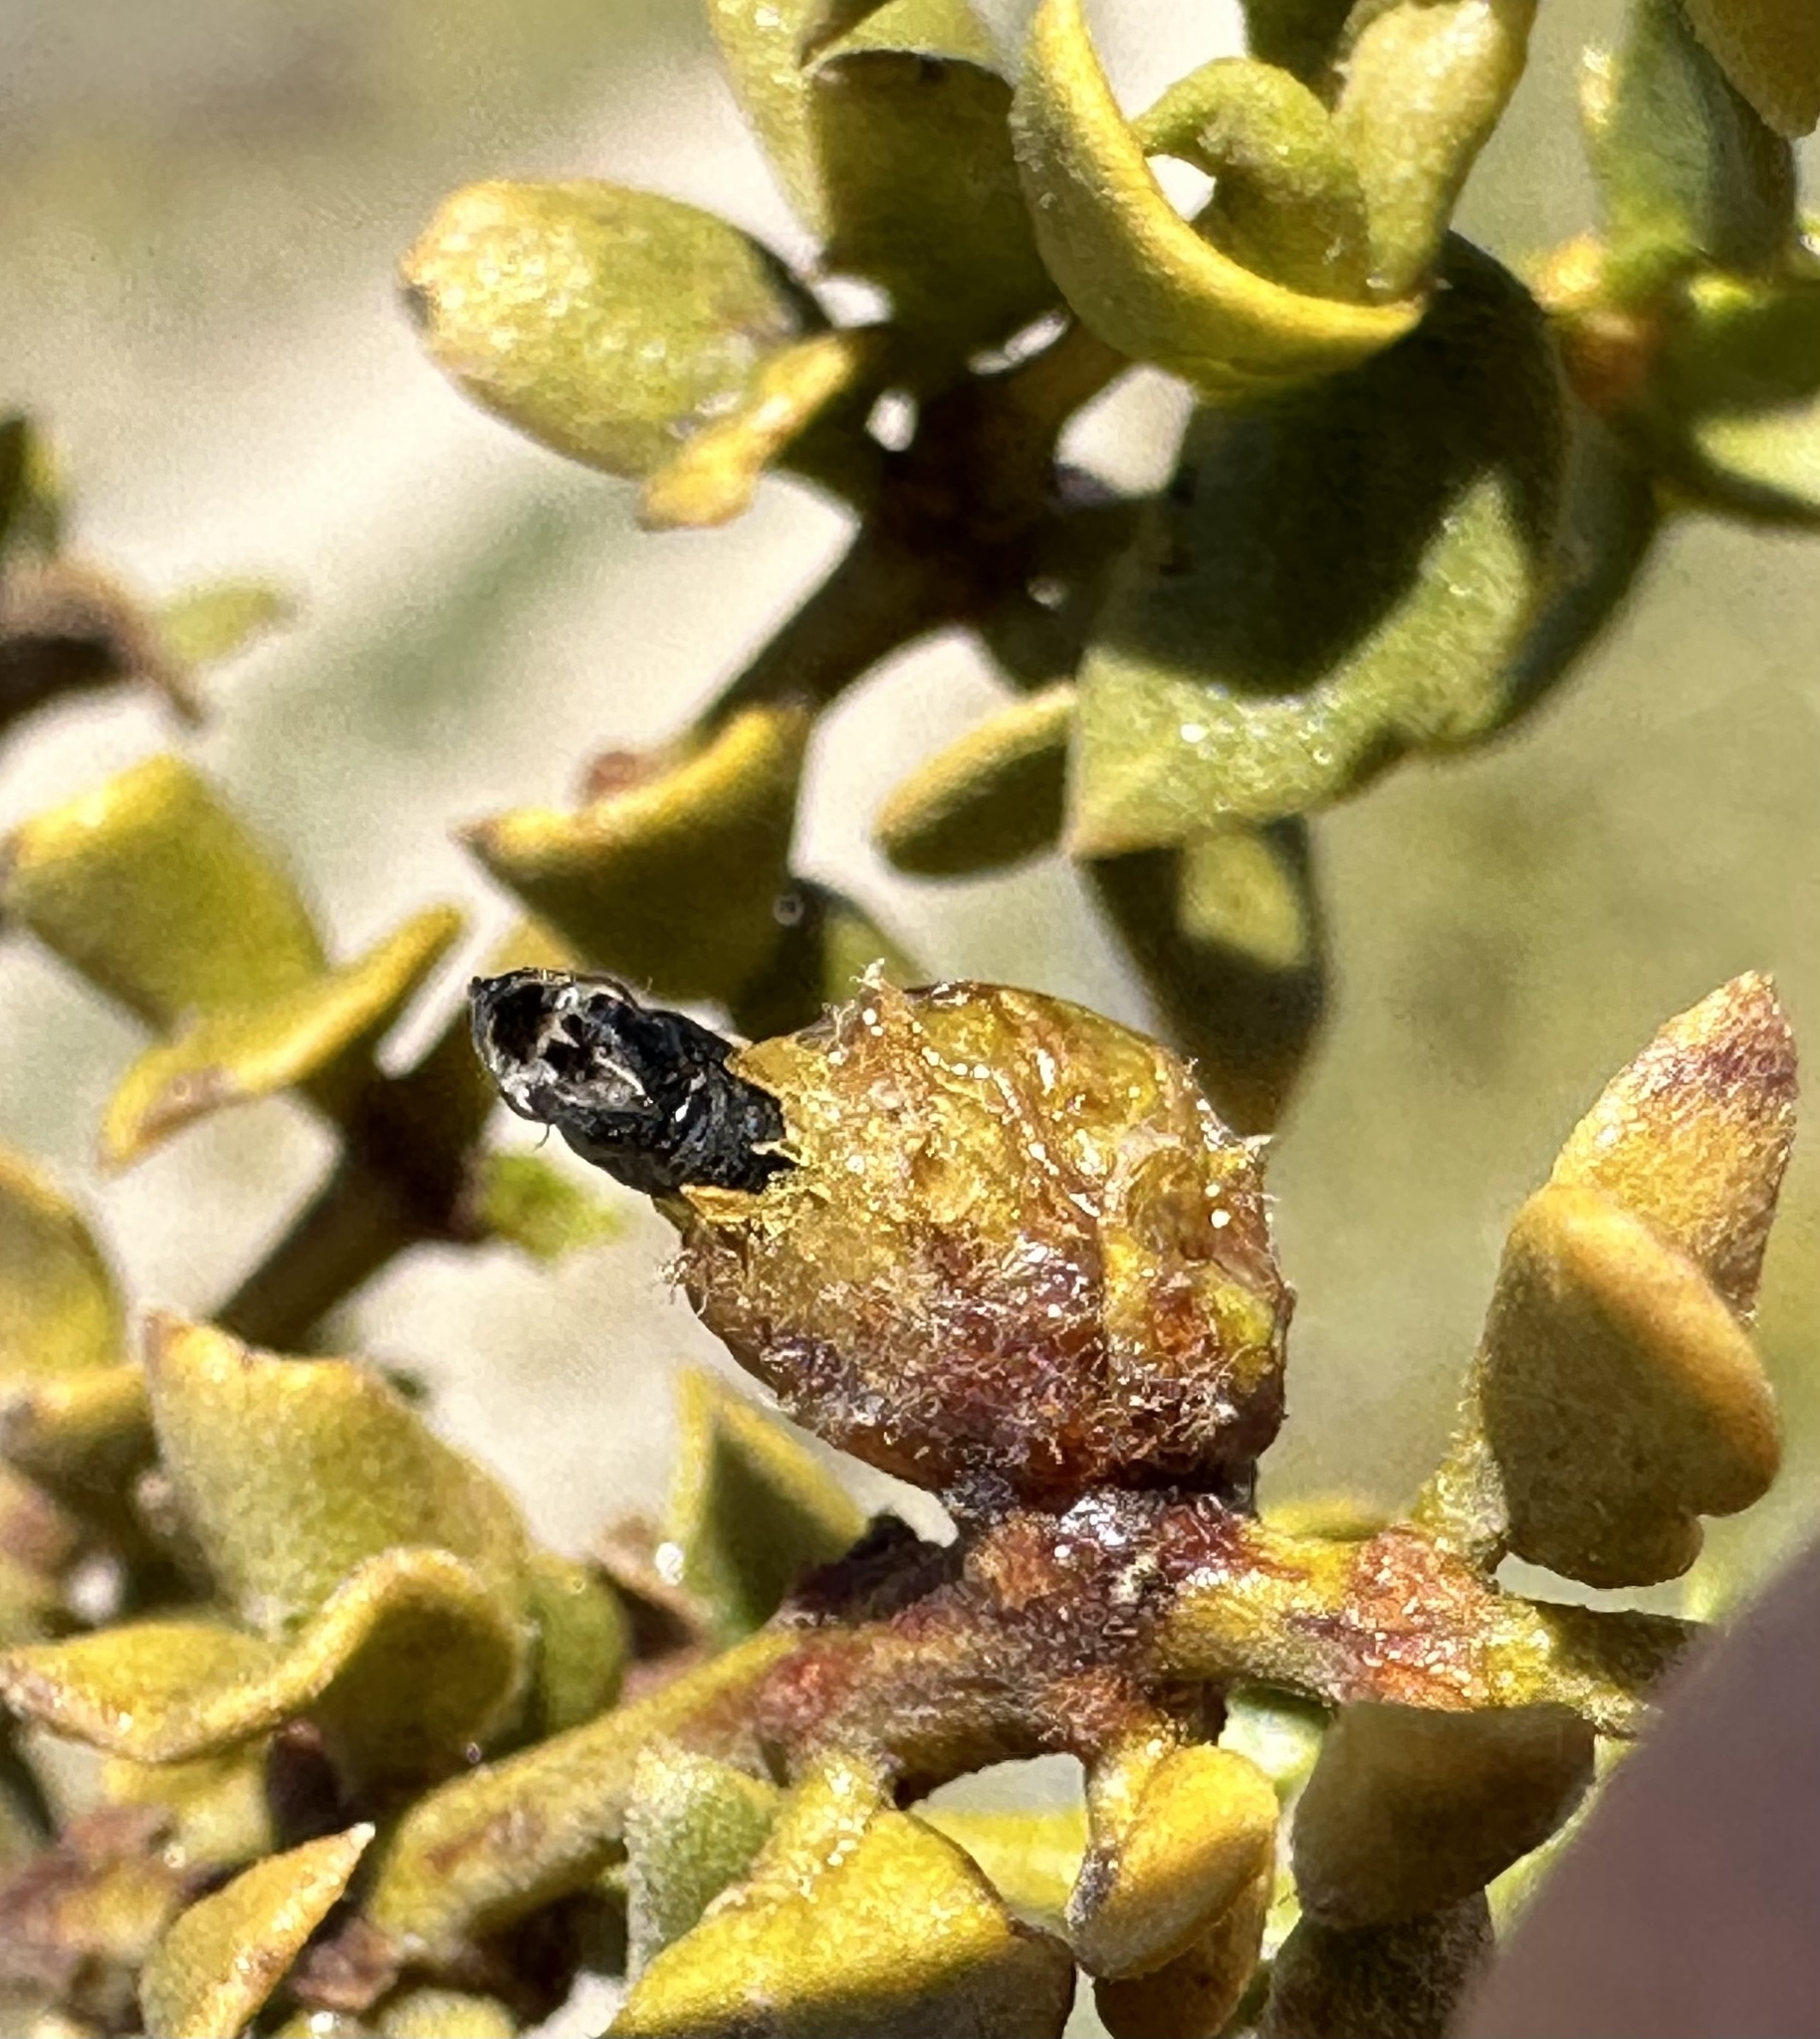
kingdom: Animalia
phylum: Arthropoda
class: Insecta
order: Diptera
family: Cecidomyiidae
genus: Asphondylia
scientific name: Asphondylia resinosa
